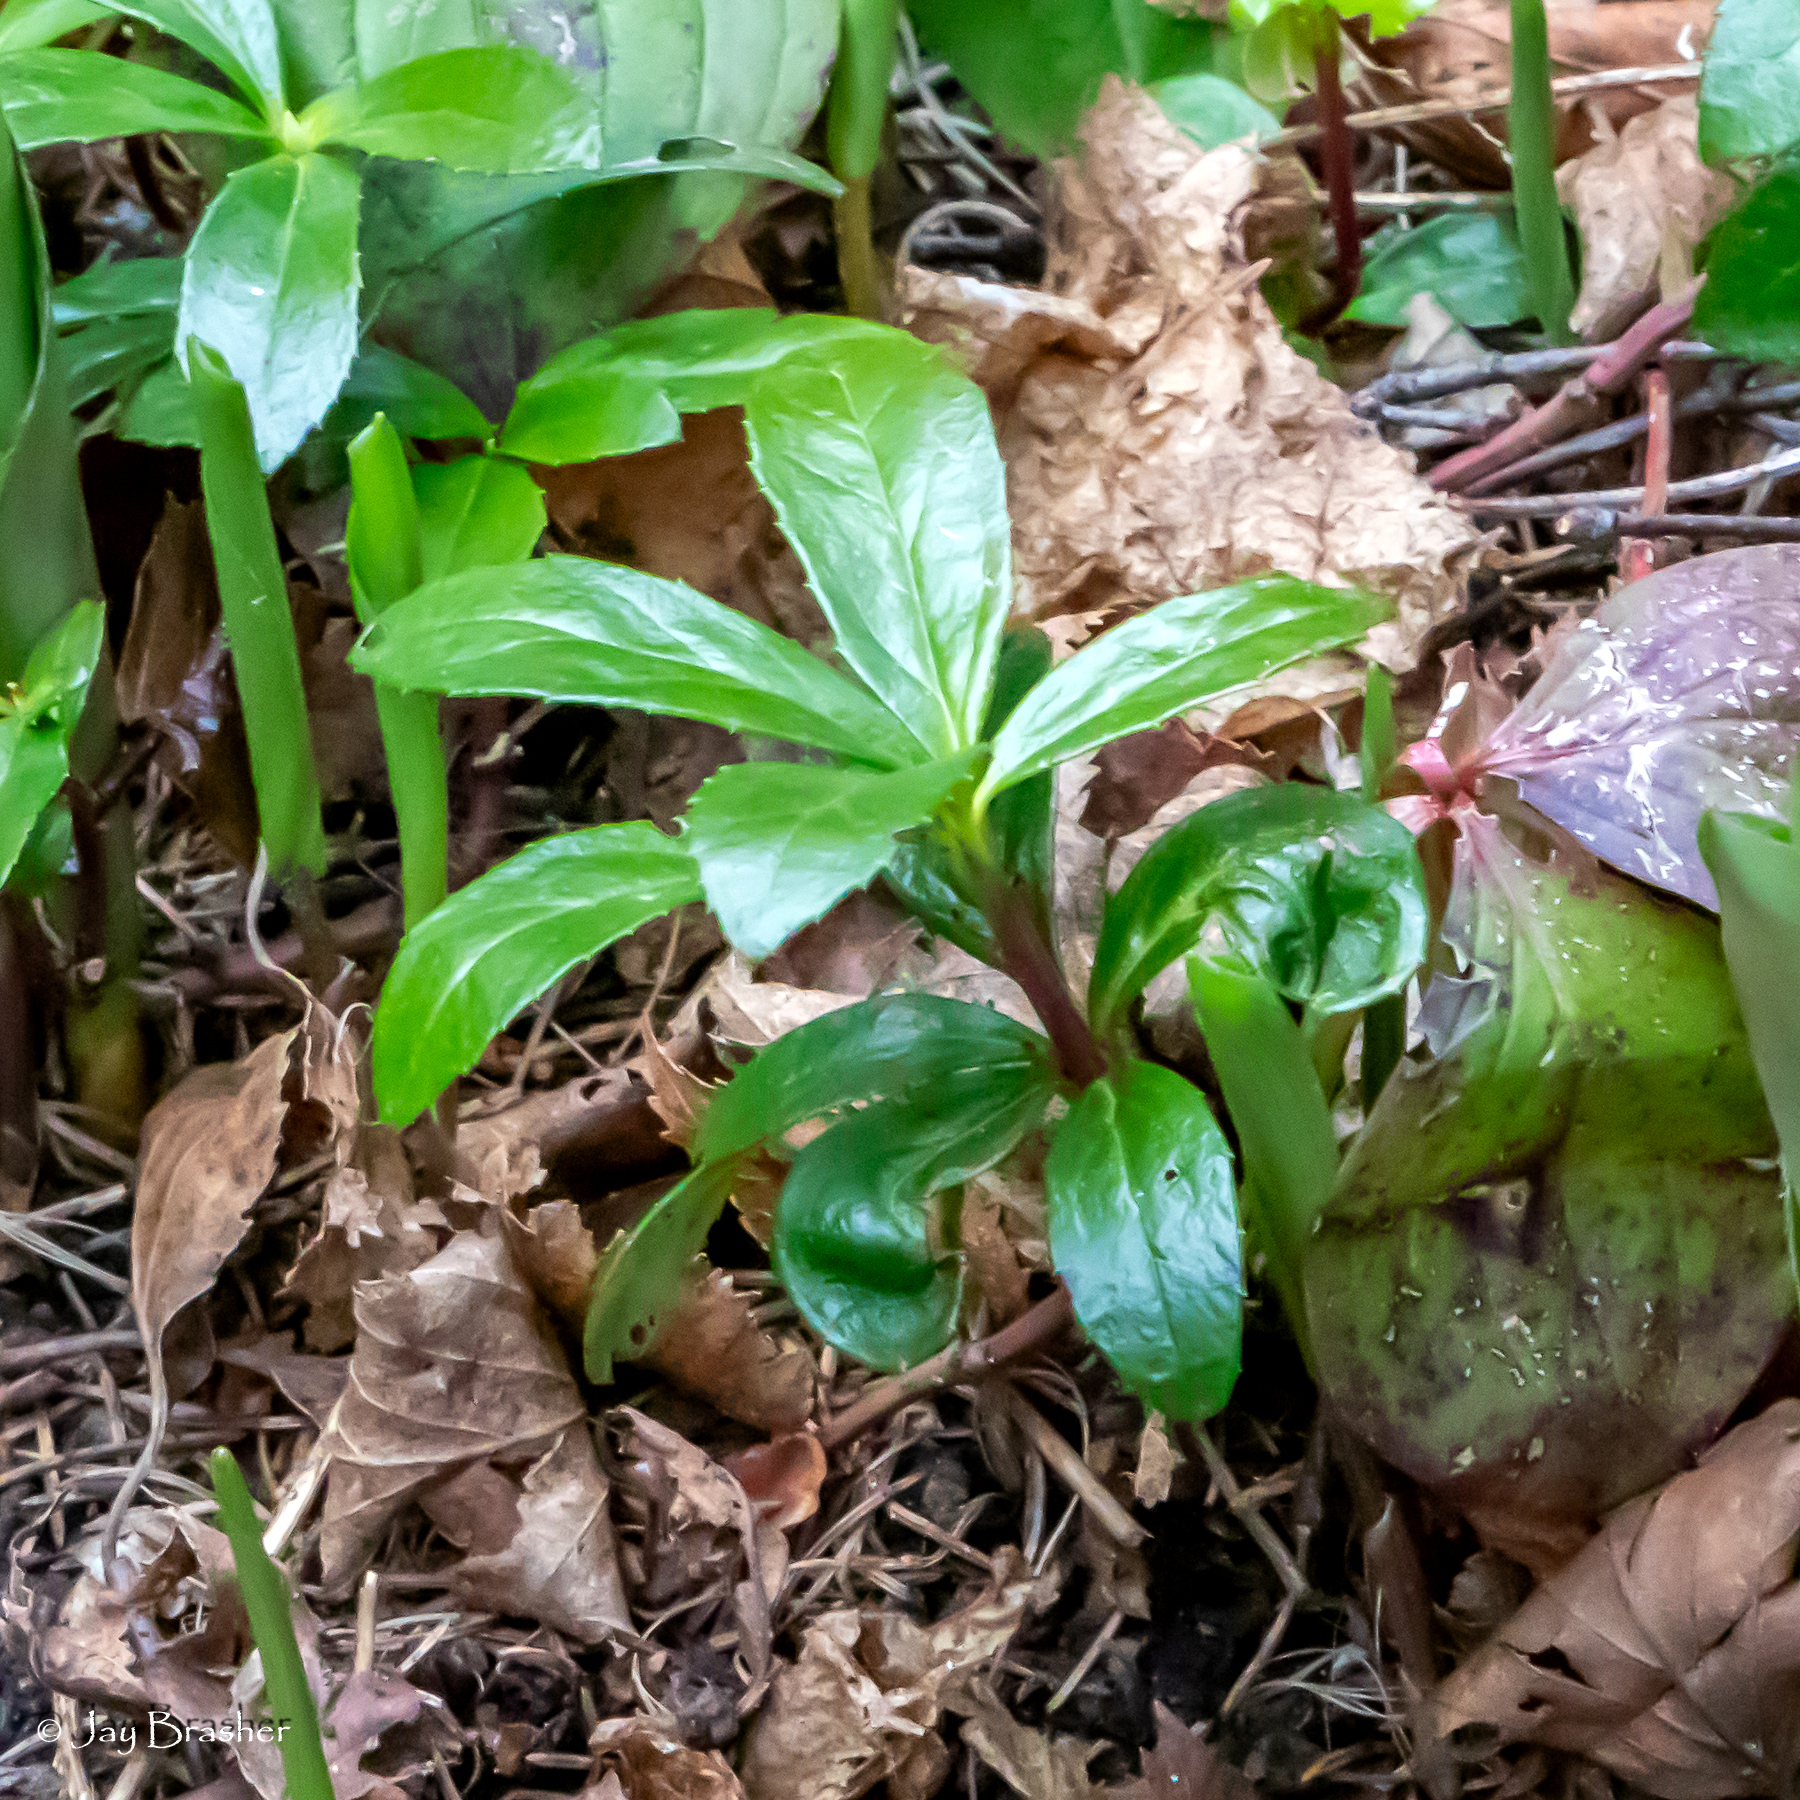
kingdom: Plantae
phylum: Tracheophyta
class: Magnoliopsida
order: Ericales
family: Ericaceae
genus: Chimaphila
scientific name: Chimaphila umbellata
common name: Pipsissewa
